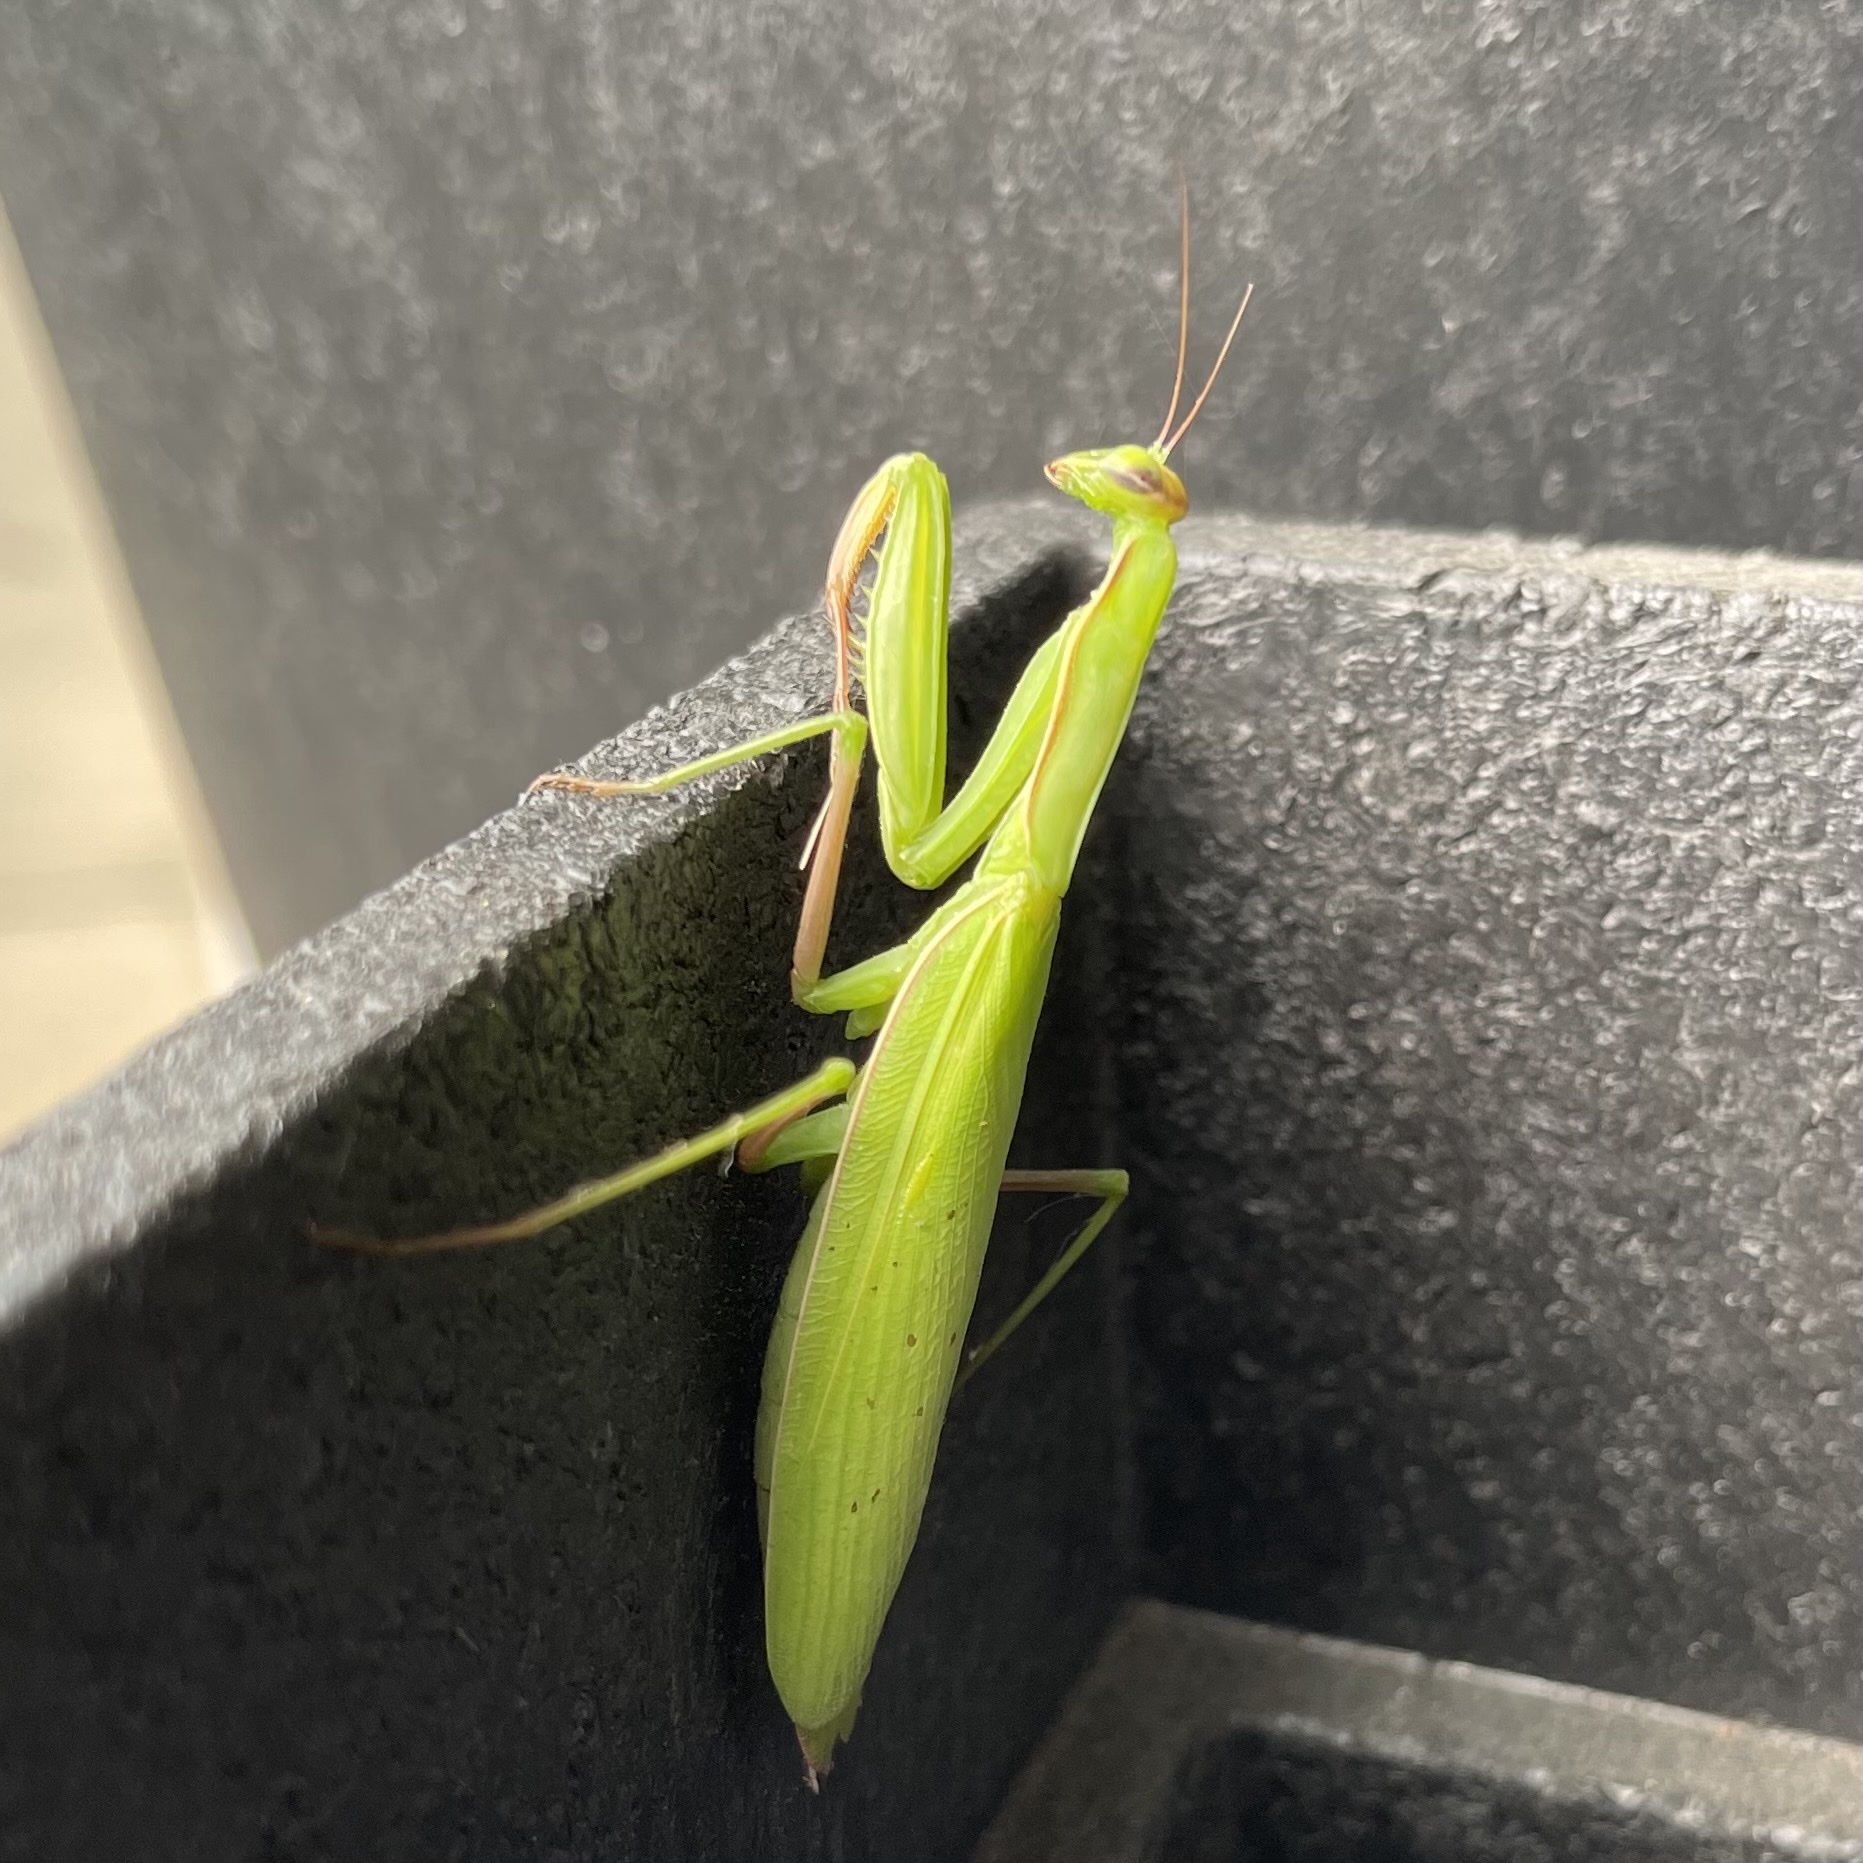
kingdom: Animalia
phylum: Arthropoda
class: Insecta
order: Mantodea
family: Mantidae
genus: Mantis
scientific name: Mantis religiosa
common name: Praying mantis
